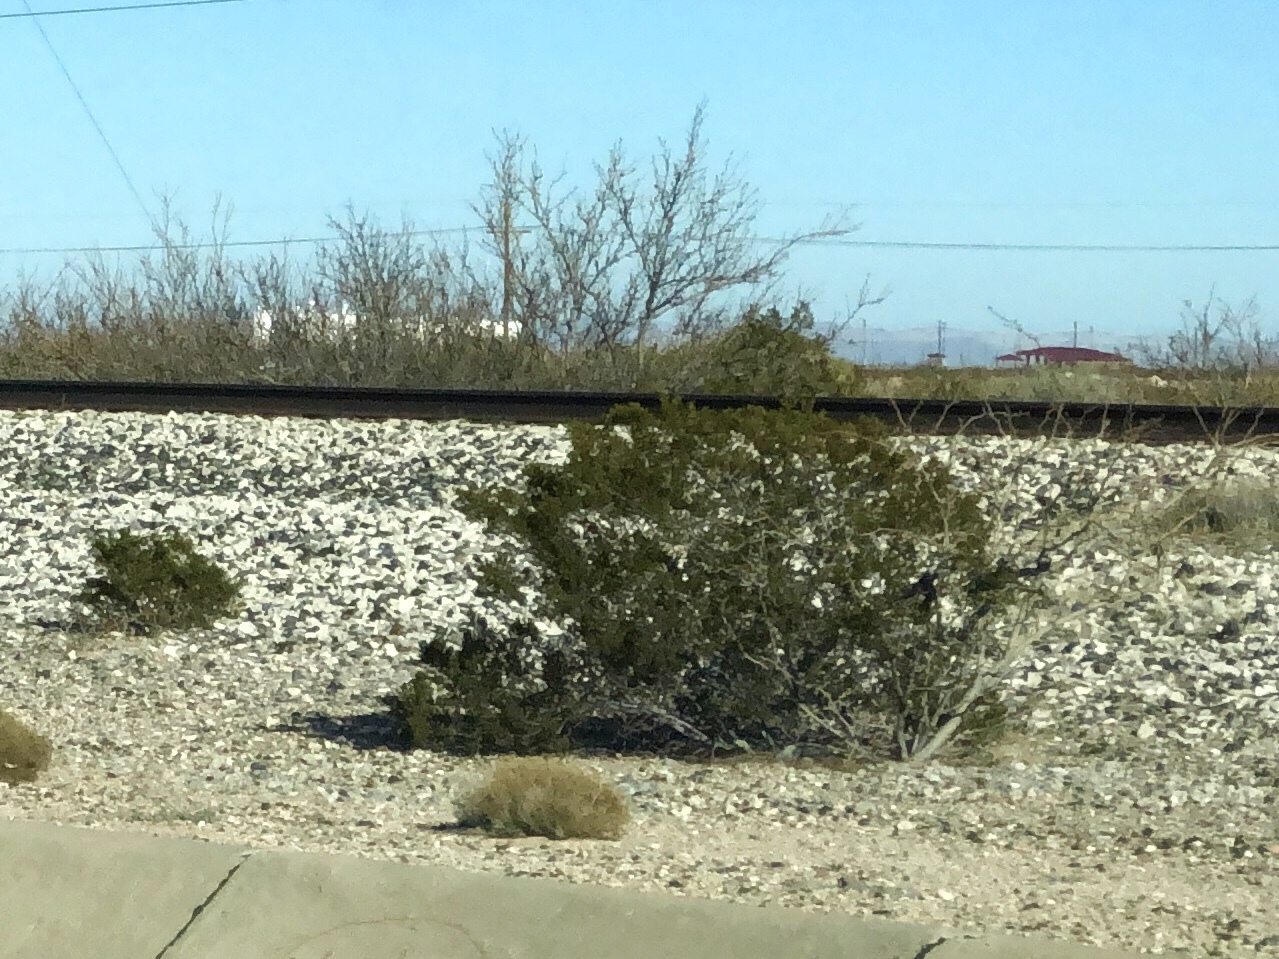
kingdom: Plantae
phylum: Tracheophyta
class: Magnoliopsida
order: Zygophyllales
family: Zygophyllaceae
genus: Larrea
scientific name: Larrea tridentata
